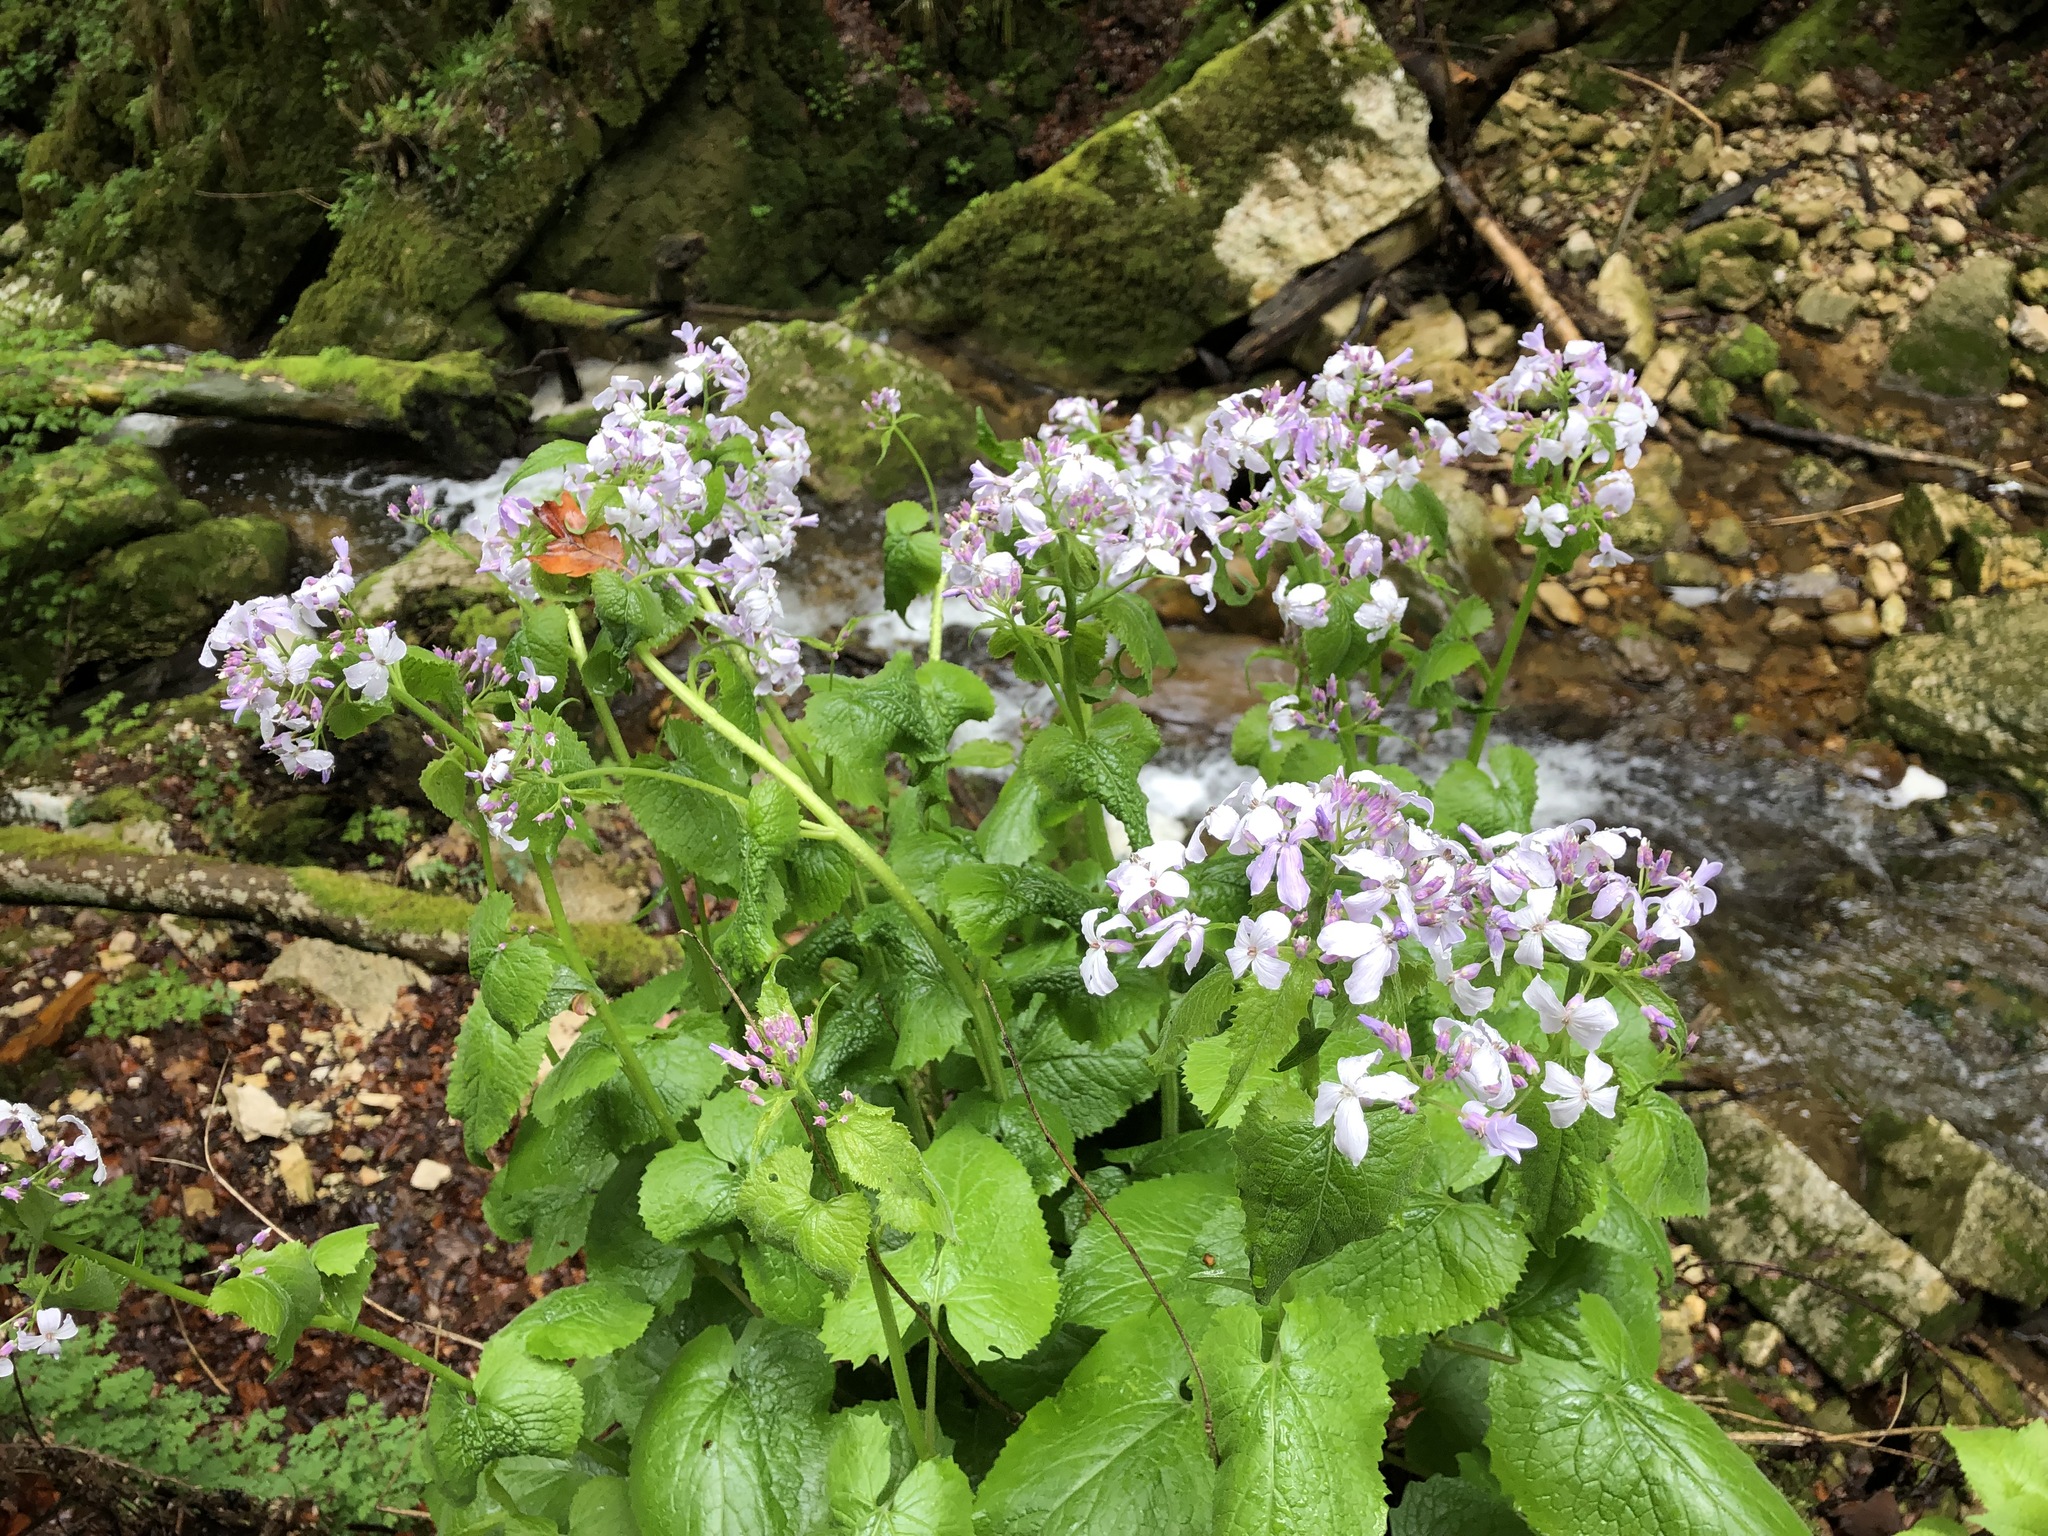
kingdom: Plantae
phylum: Tracheophyta
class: Magnoliopsida
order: Brassicales
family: Brassicaceae
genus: Lunaria
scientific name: Lunaria rediviva
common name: Perennial honesty
